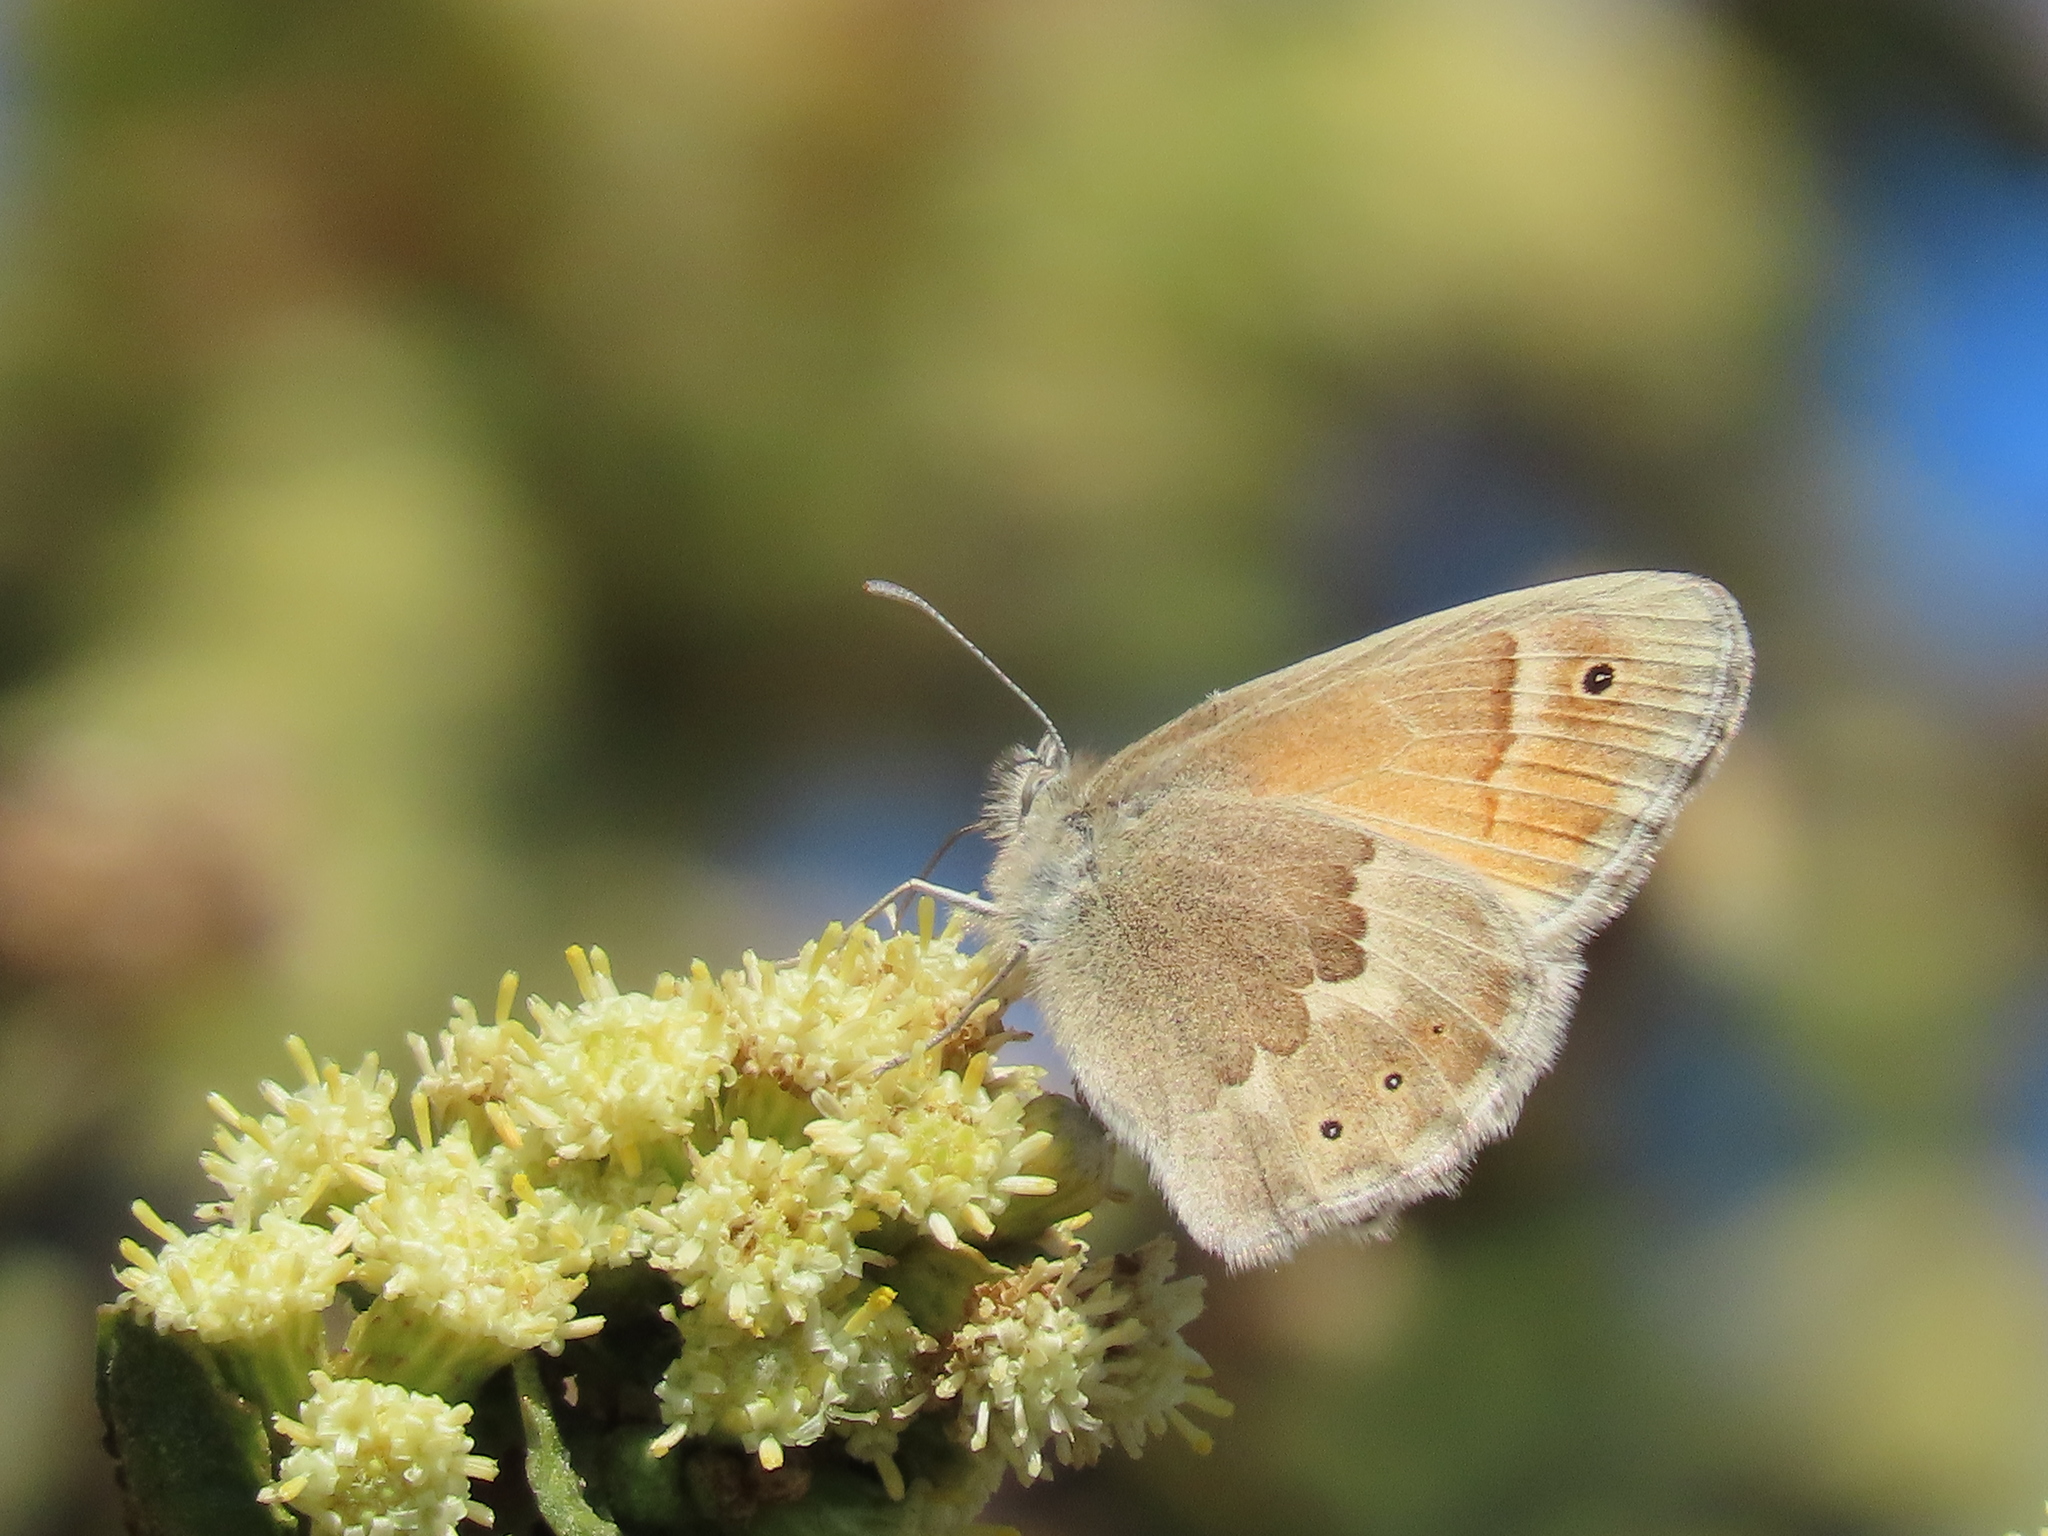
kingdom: Animalia
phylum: Arthropoda
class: Insecta
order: Lepidoptera
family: Nymphalidae
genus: Coenonympha
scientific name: Coenonympha california
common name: Common ringlet
